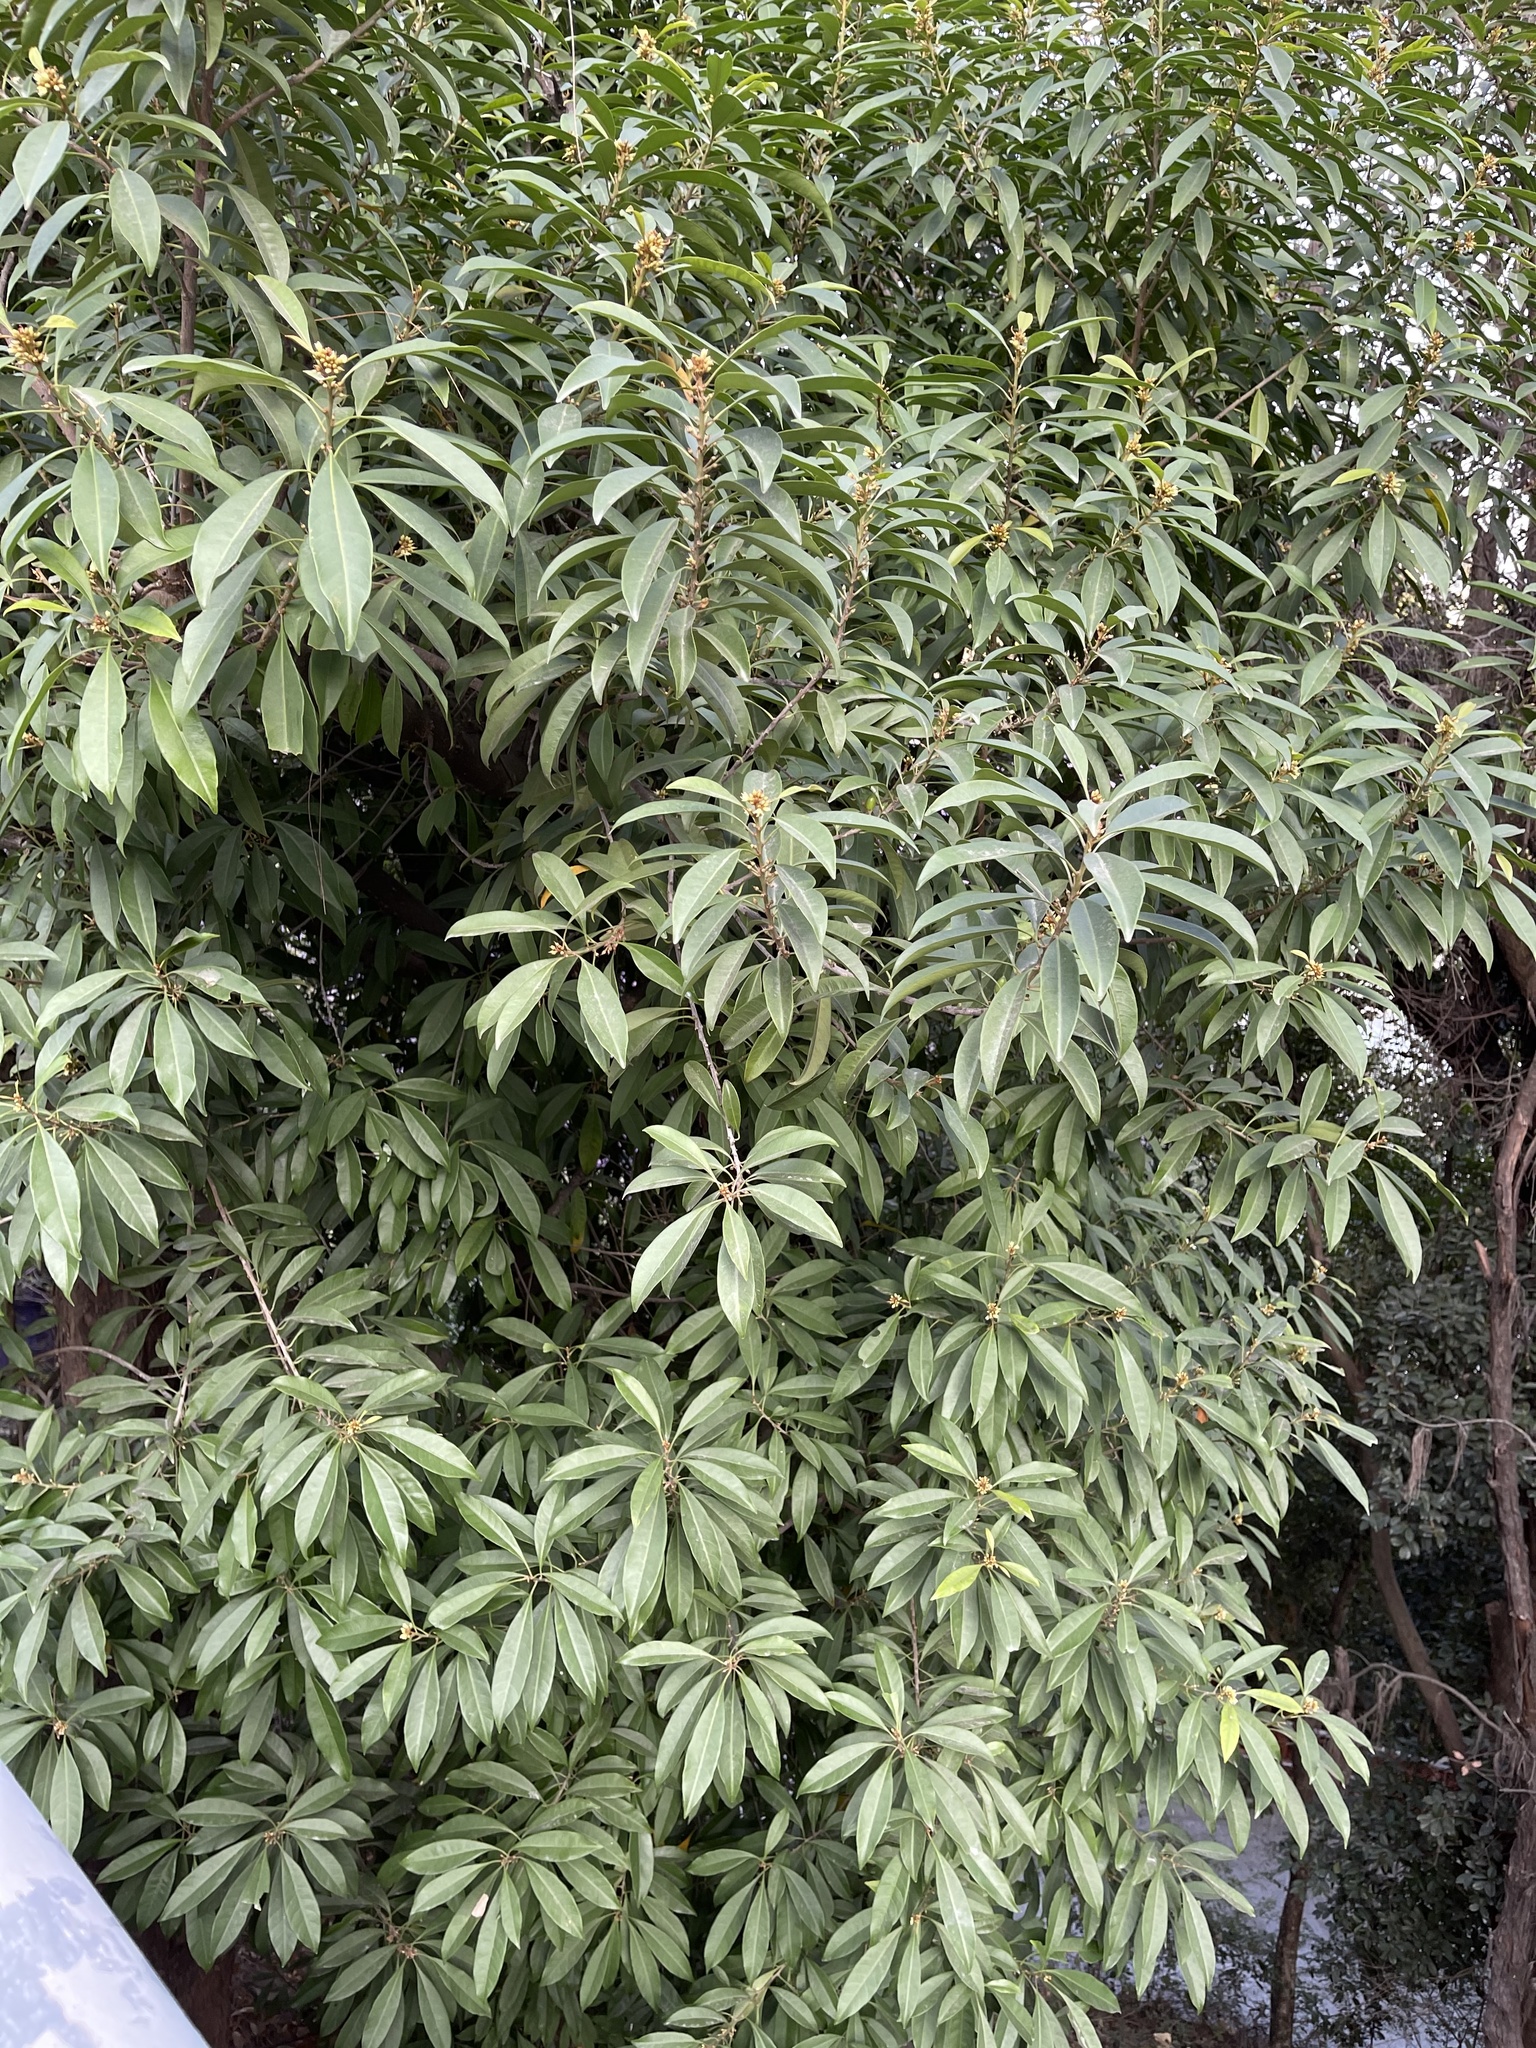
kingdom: Plantae
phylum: Tracheophyta
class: Magnoliopsida
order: Ericales
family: Sapotaceae
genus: Sideroxylon
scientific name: Sideroxylon wightianum
